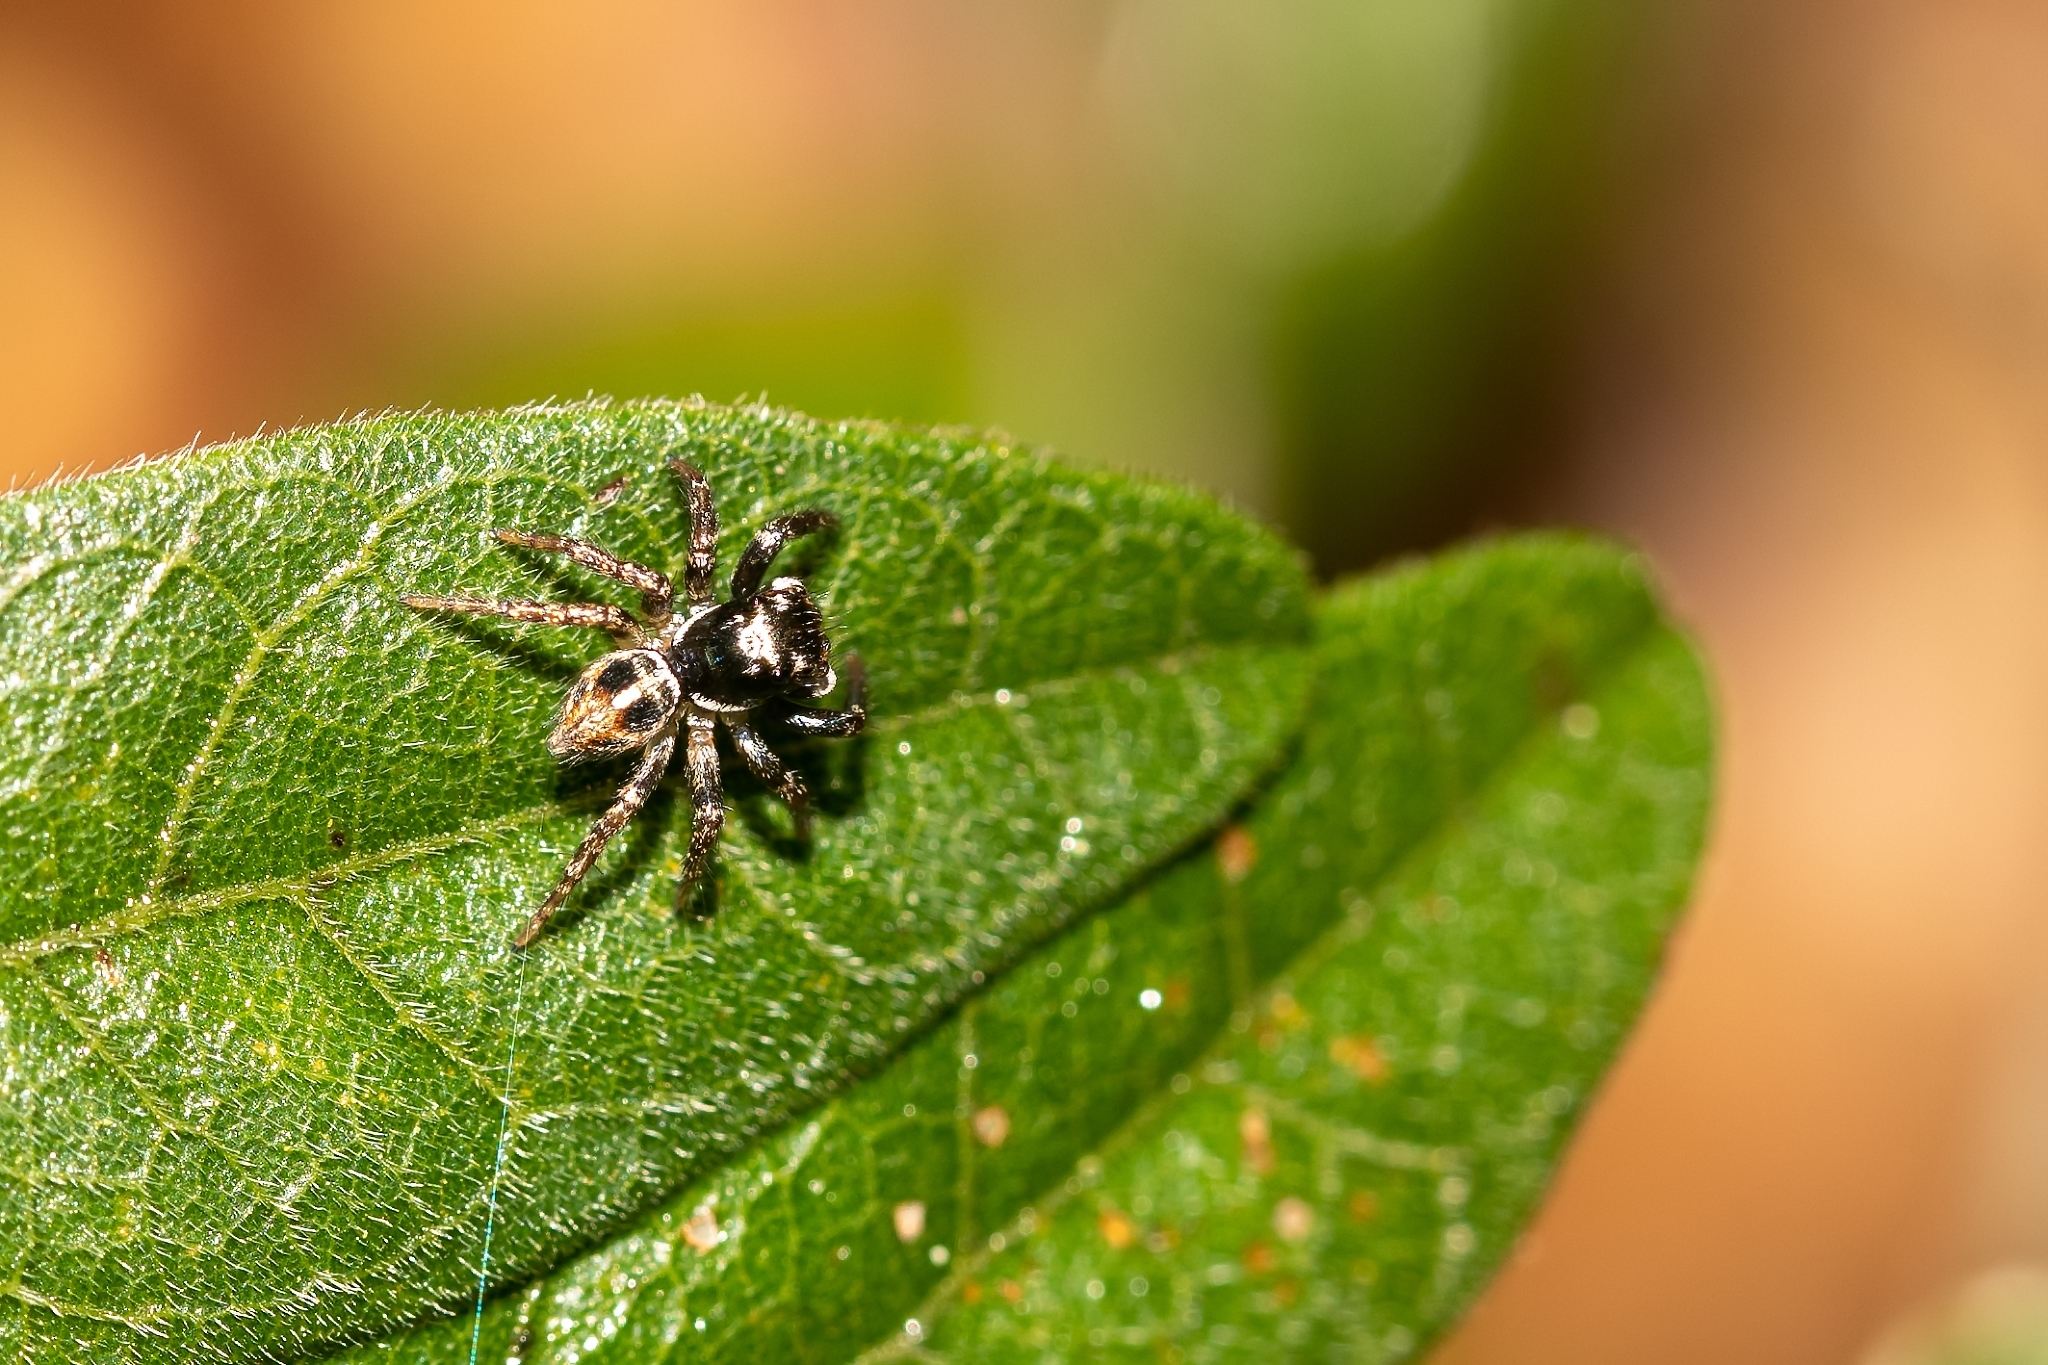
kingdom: Animalia
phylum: Arthropoda
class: Arachnida
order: Araneae
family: Salticidae
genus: Anasaitis
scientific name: Anasaitis canosa
